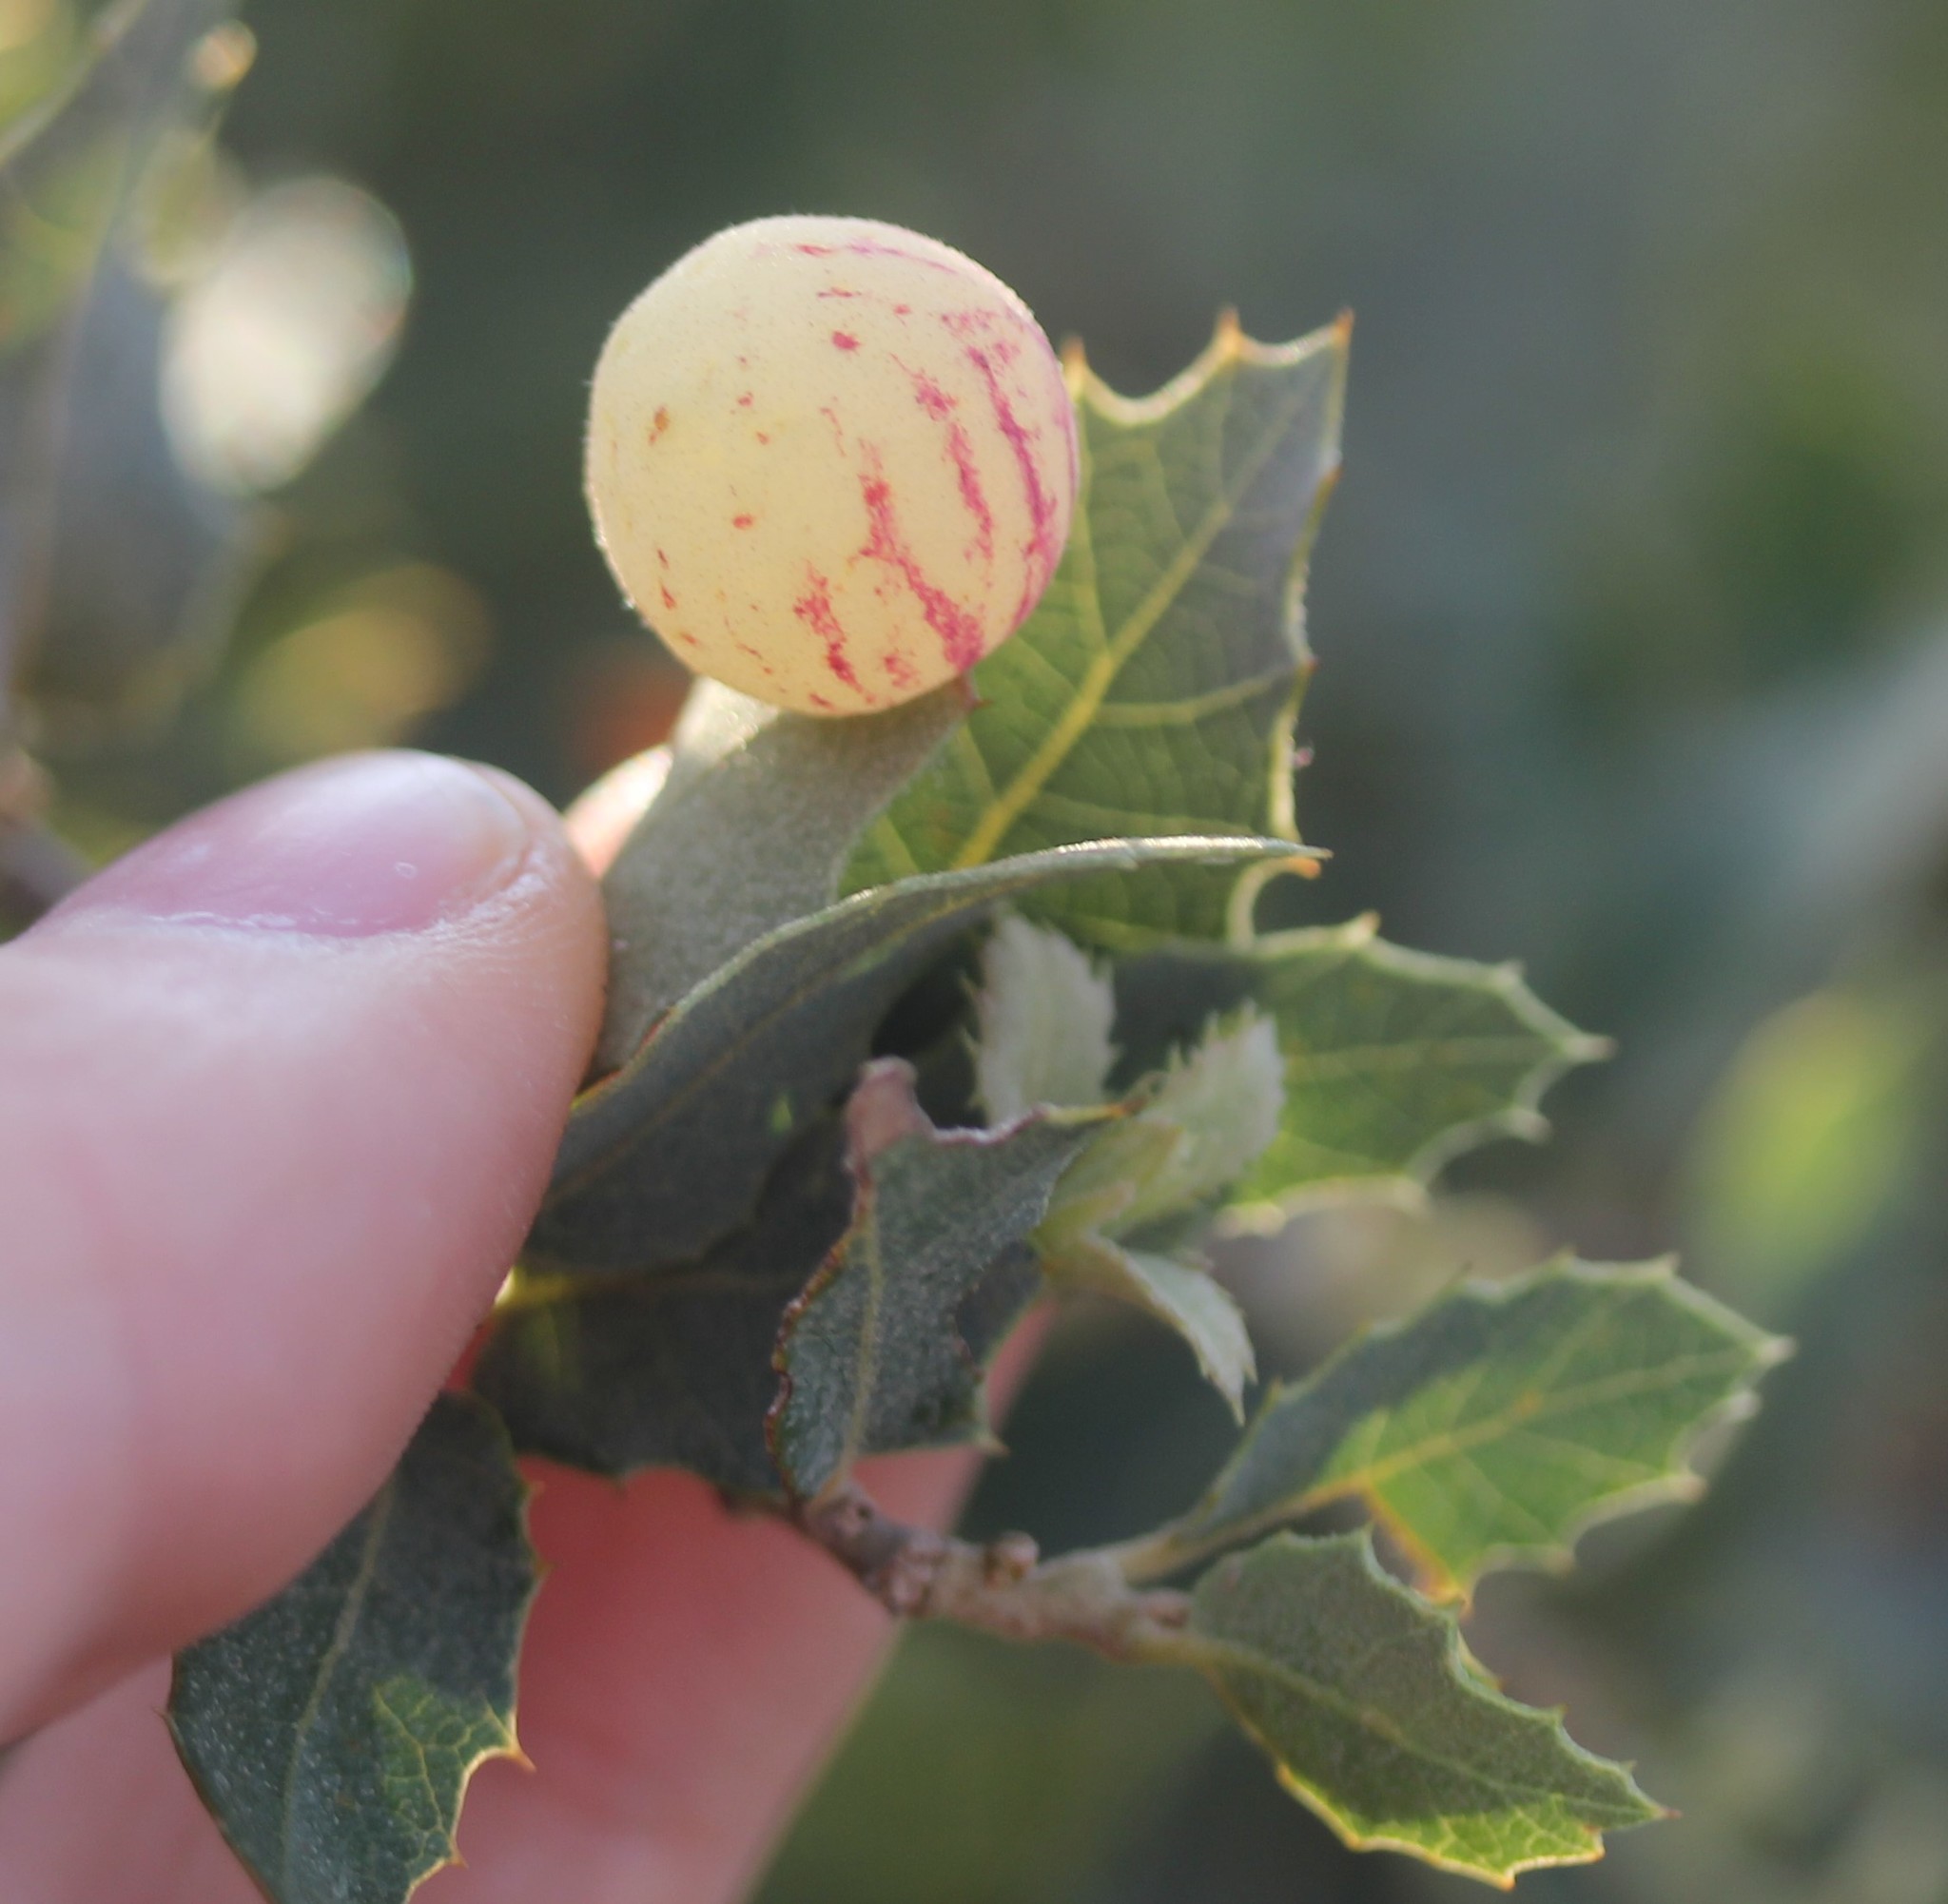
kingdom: Animalia
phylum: Arthropoda
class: Insecta
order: Hymenoptera
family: Cynipidae
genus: Atrusca
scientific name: Atrusca
